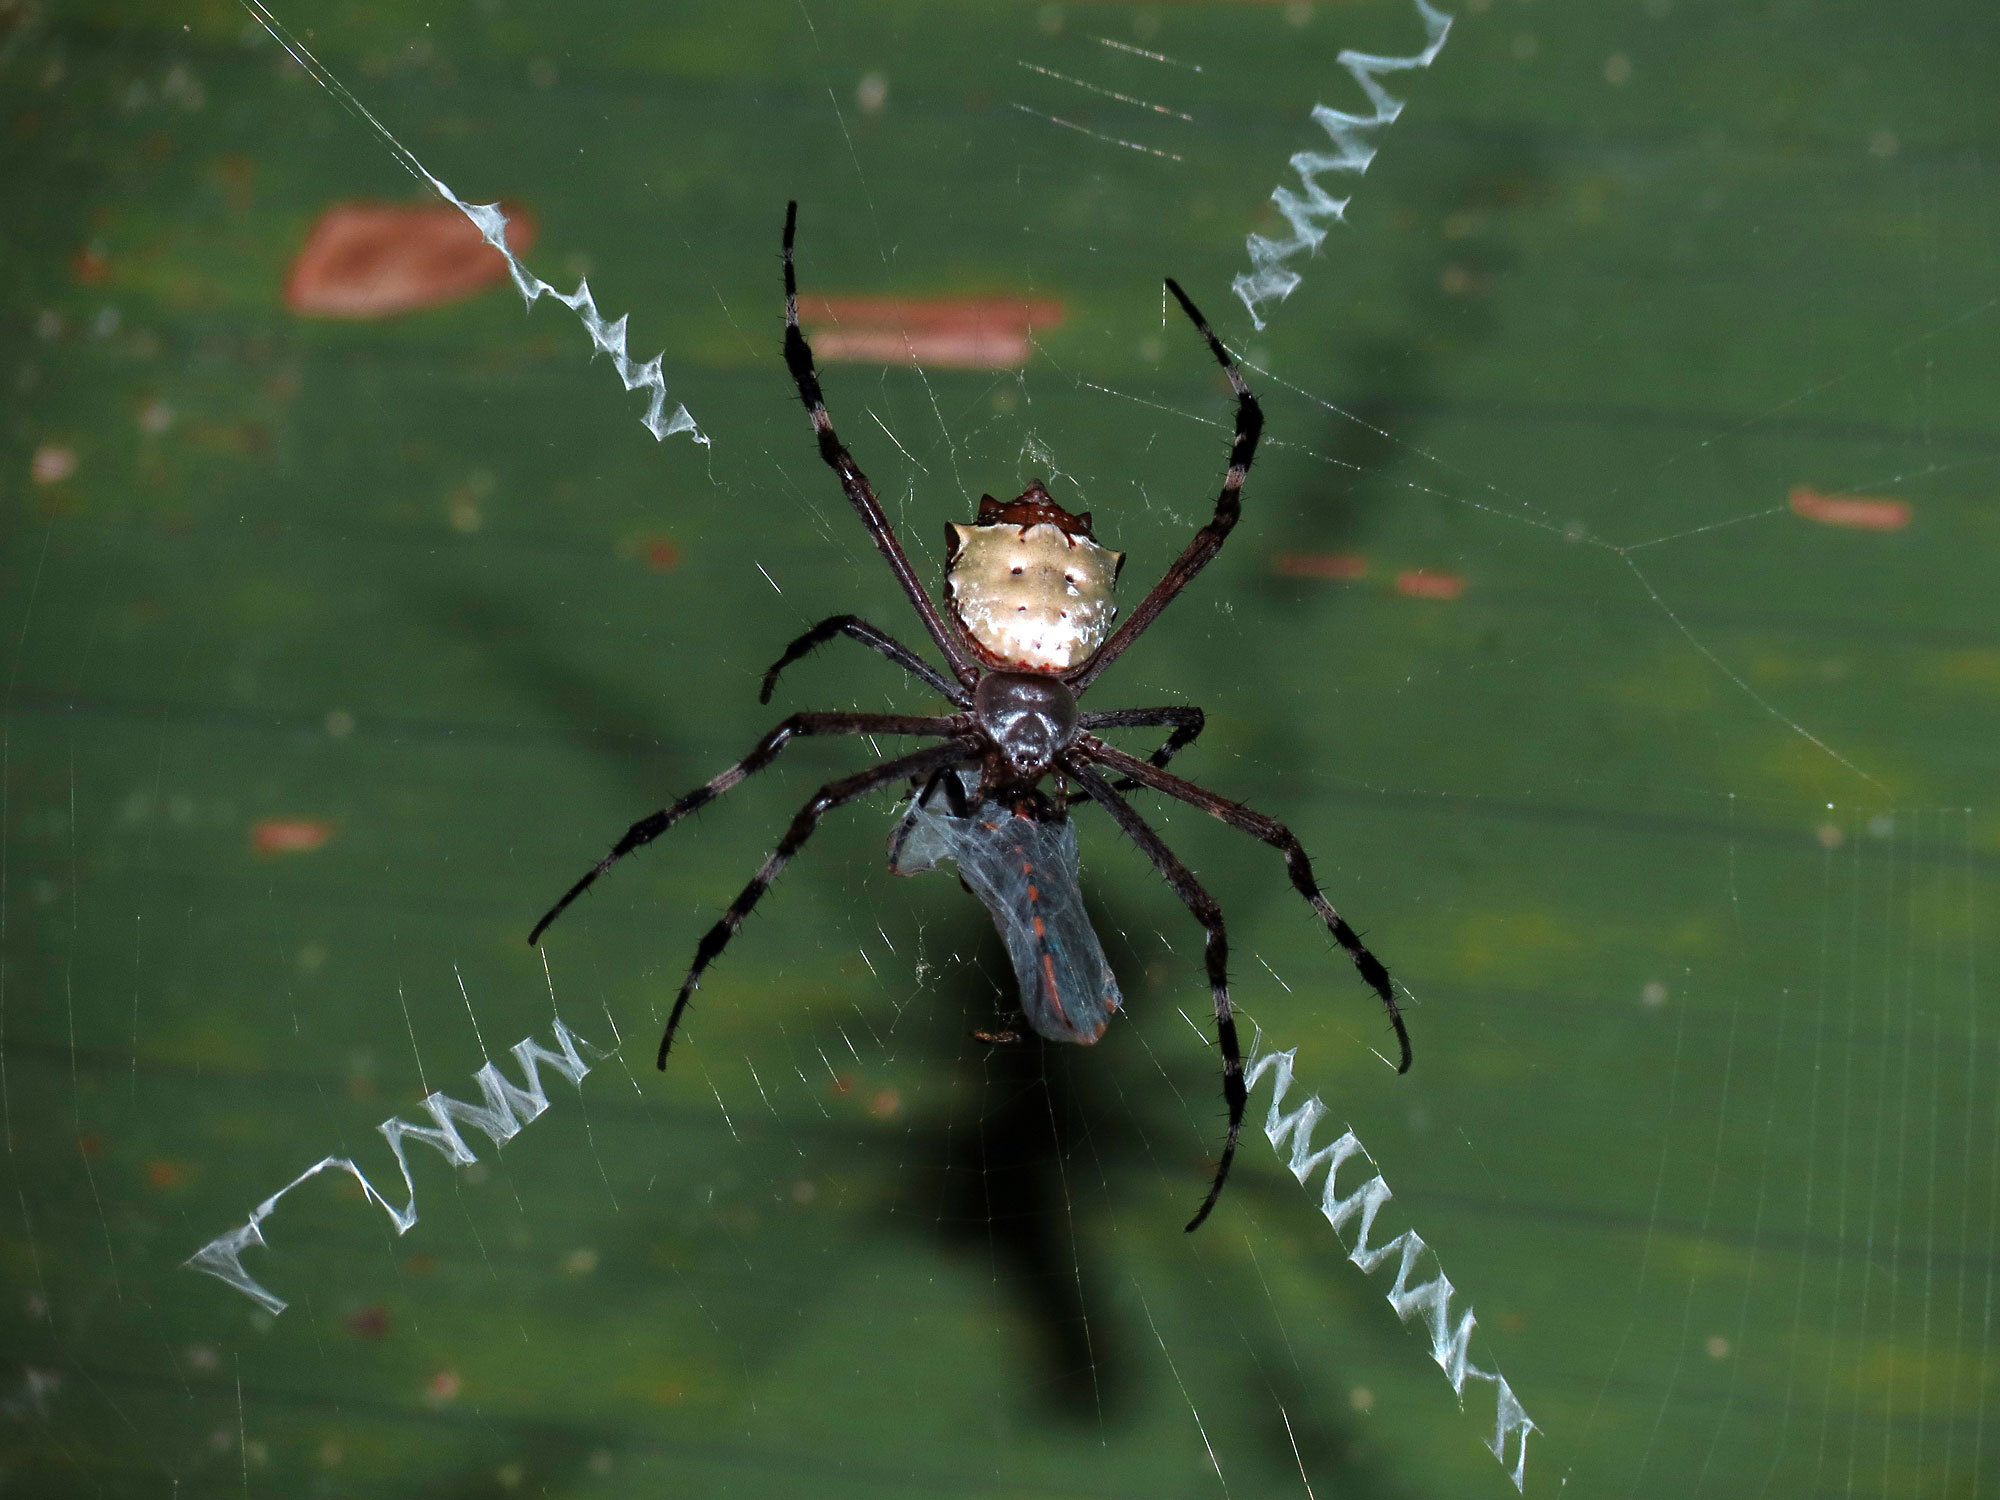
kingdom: Animalia
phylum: Arthropoda
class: Arachnida
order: Araneae
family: Araneidae
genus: Argiope
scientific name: Argiope submaronica
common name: Orb weavers
